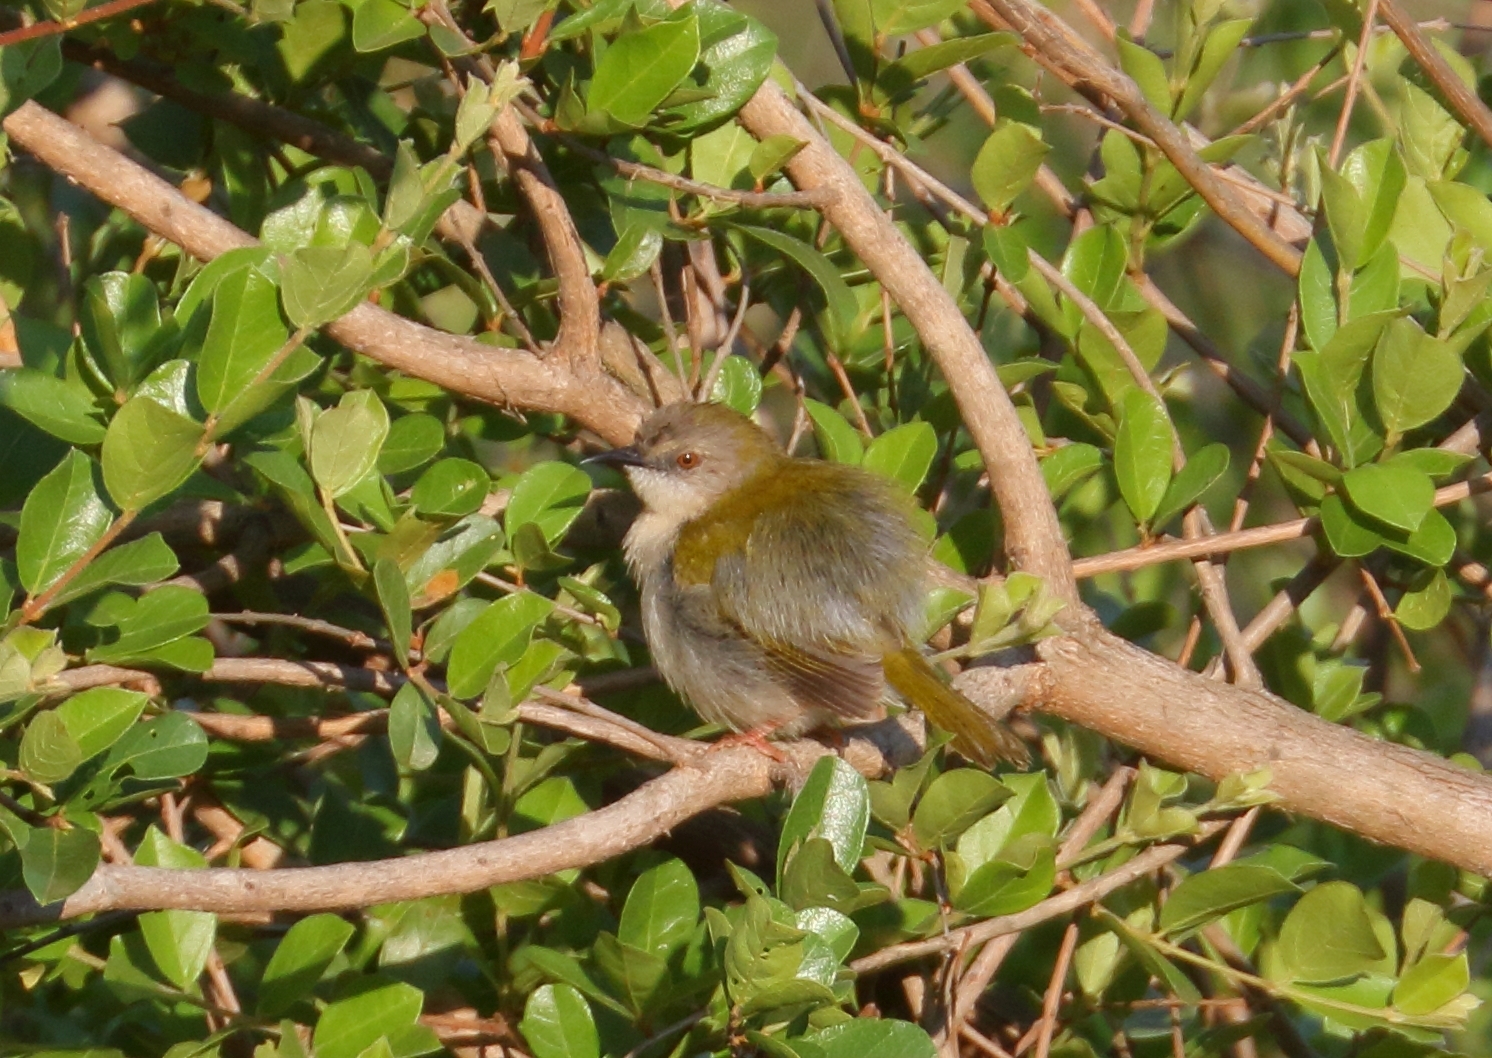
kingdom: Animalia
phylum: Chordata
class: Aves
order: Passeriformes
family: Cisticolidae
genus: Camaroptera
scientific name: Camaroptera brachyura
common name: Green-backed camaroptera
